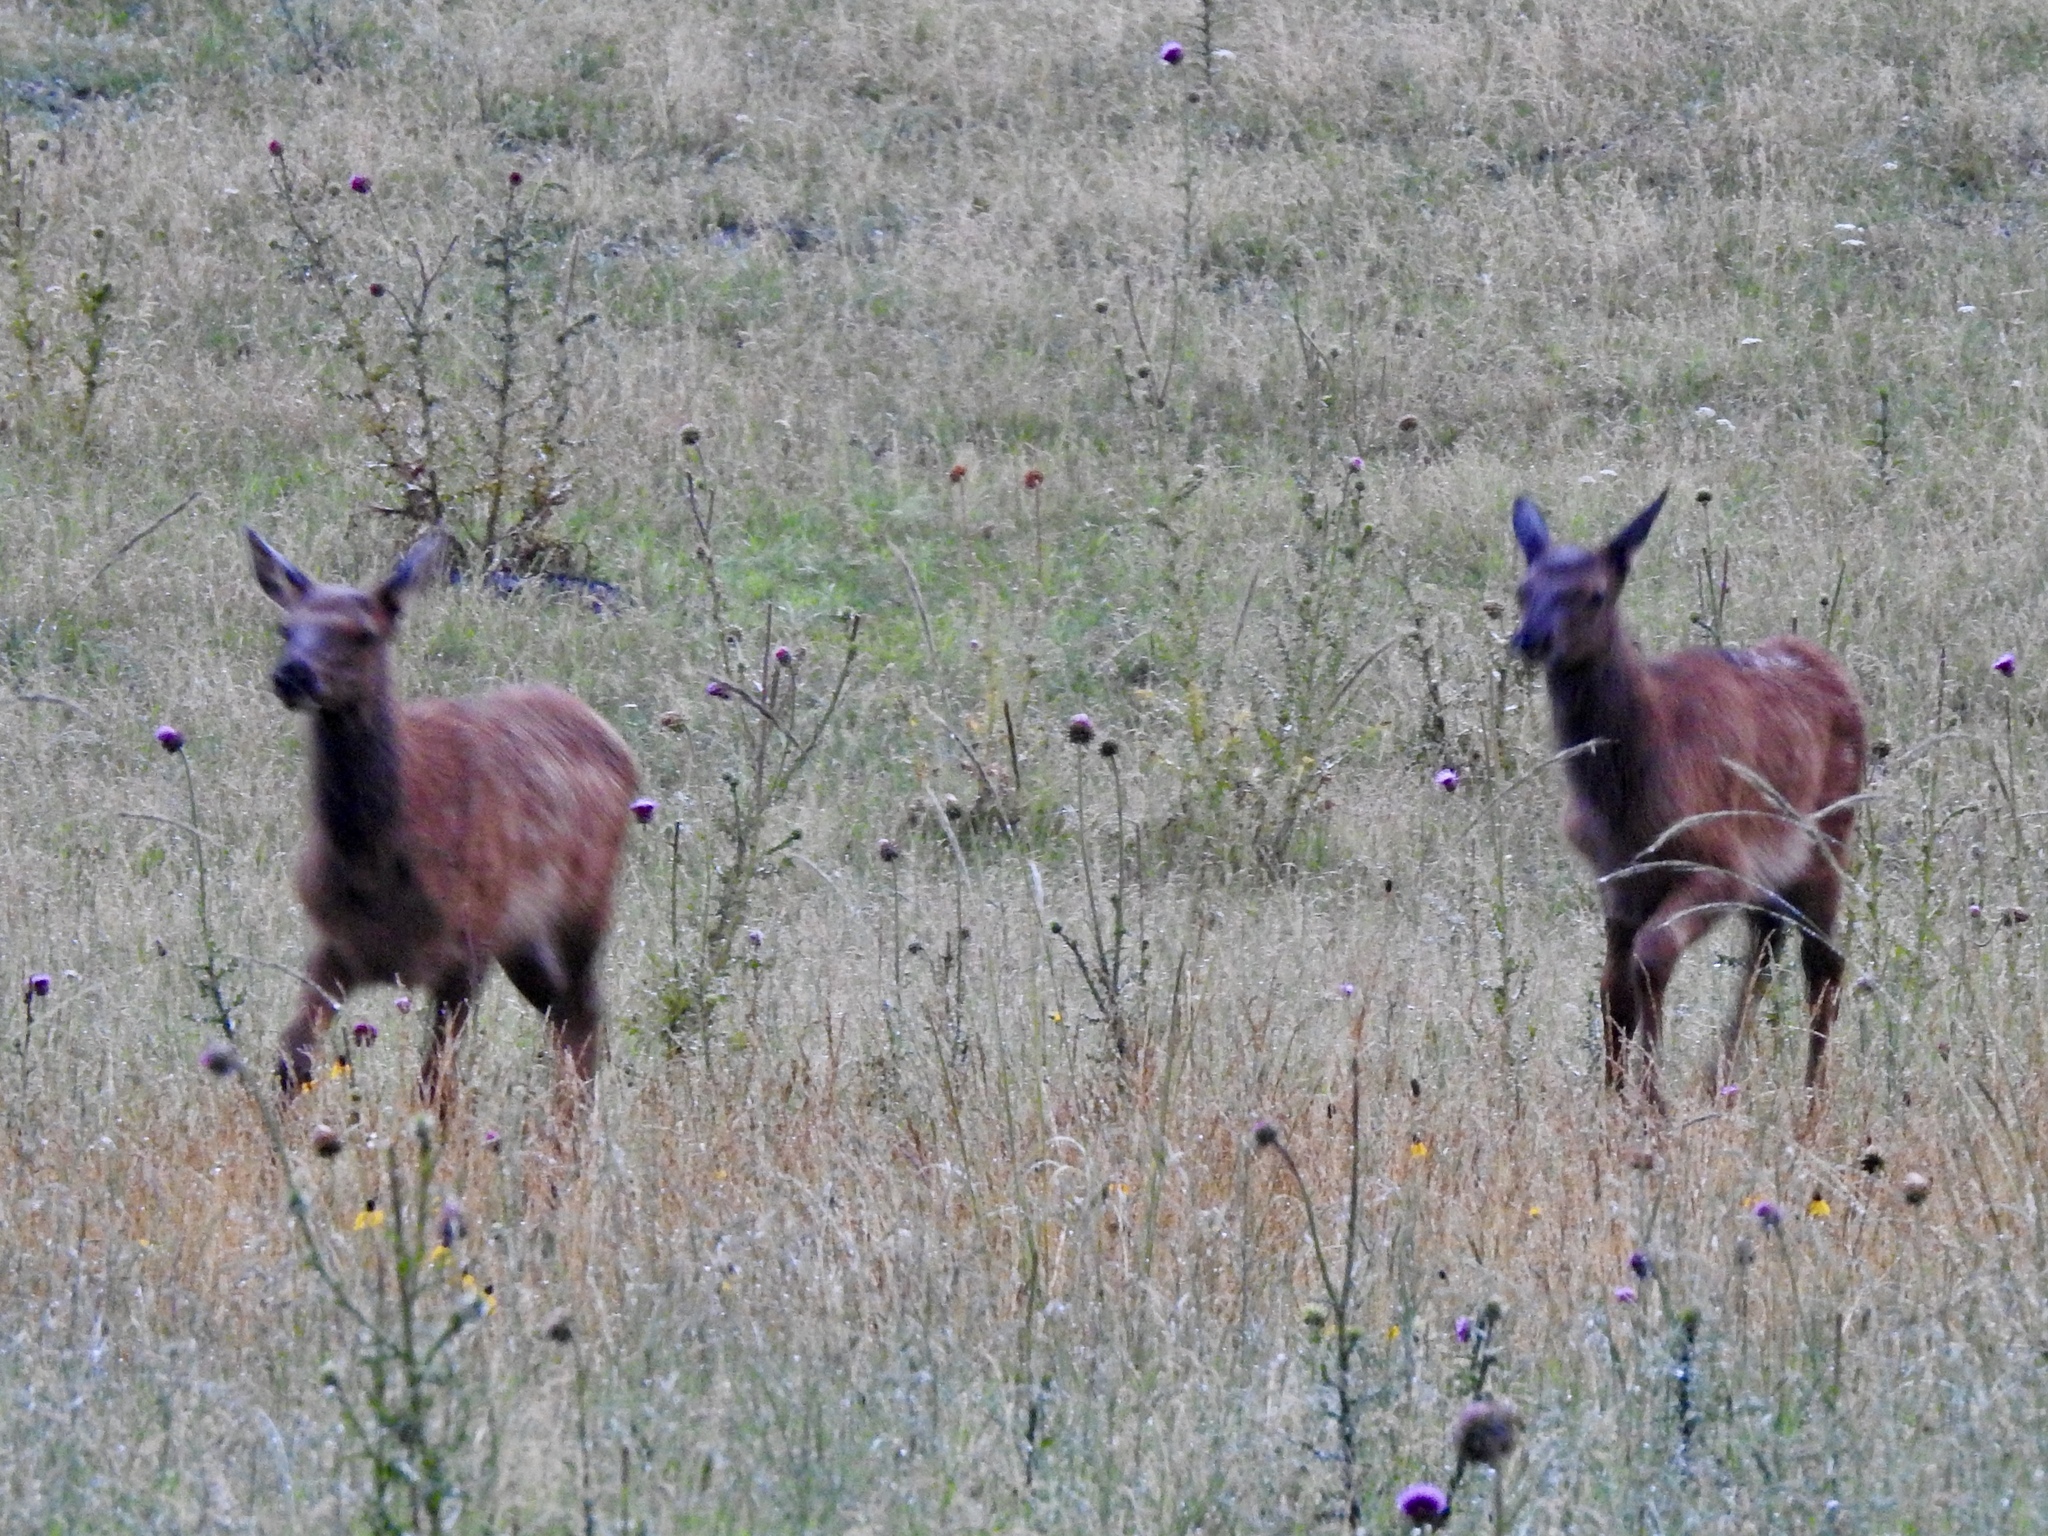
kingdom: Animalia
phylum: Chordata
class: Mammalia
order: Artiodactyla
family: Cervidae
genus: Cervus
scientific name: Cervus elaphus
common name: Red deer
